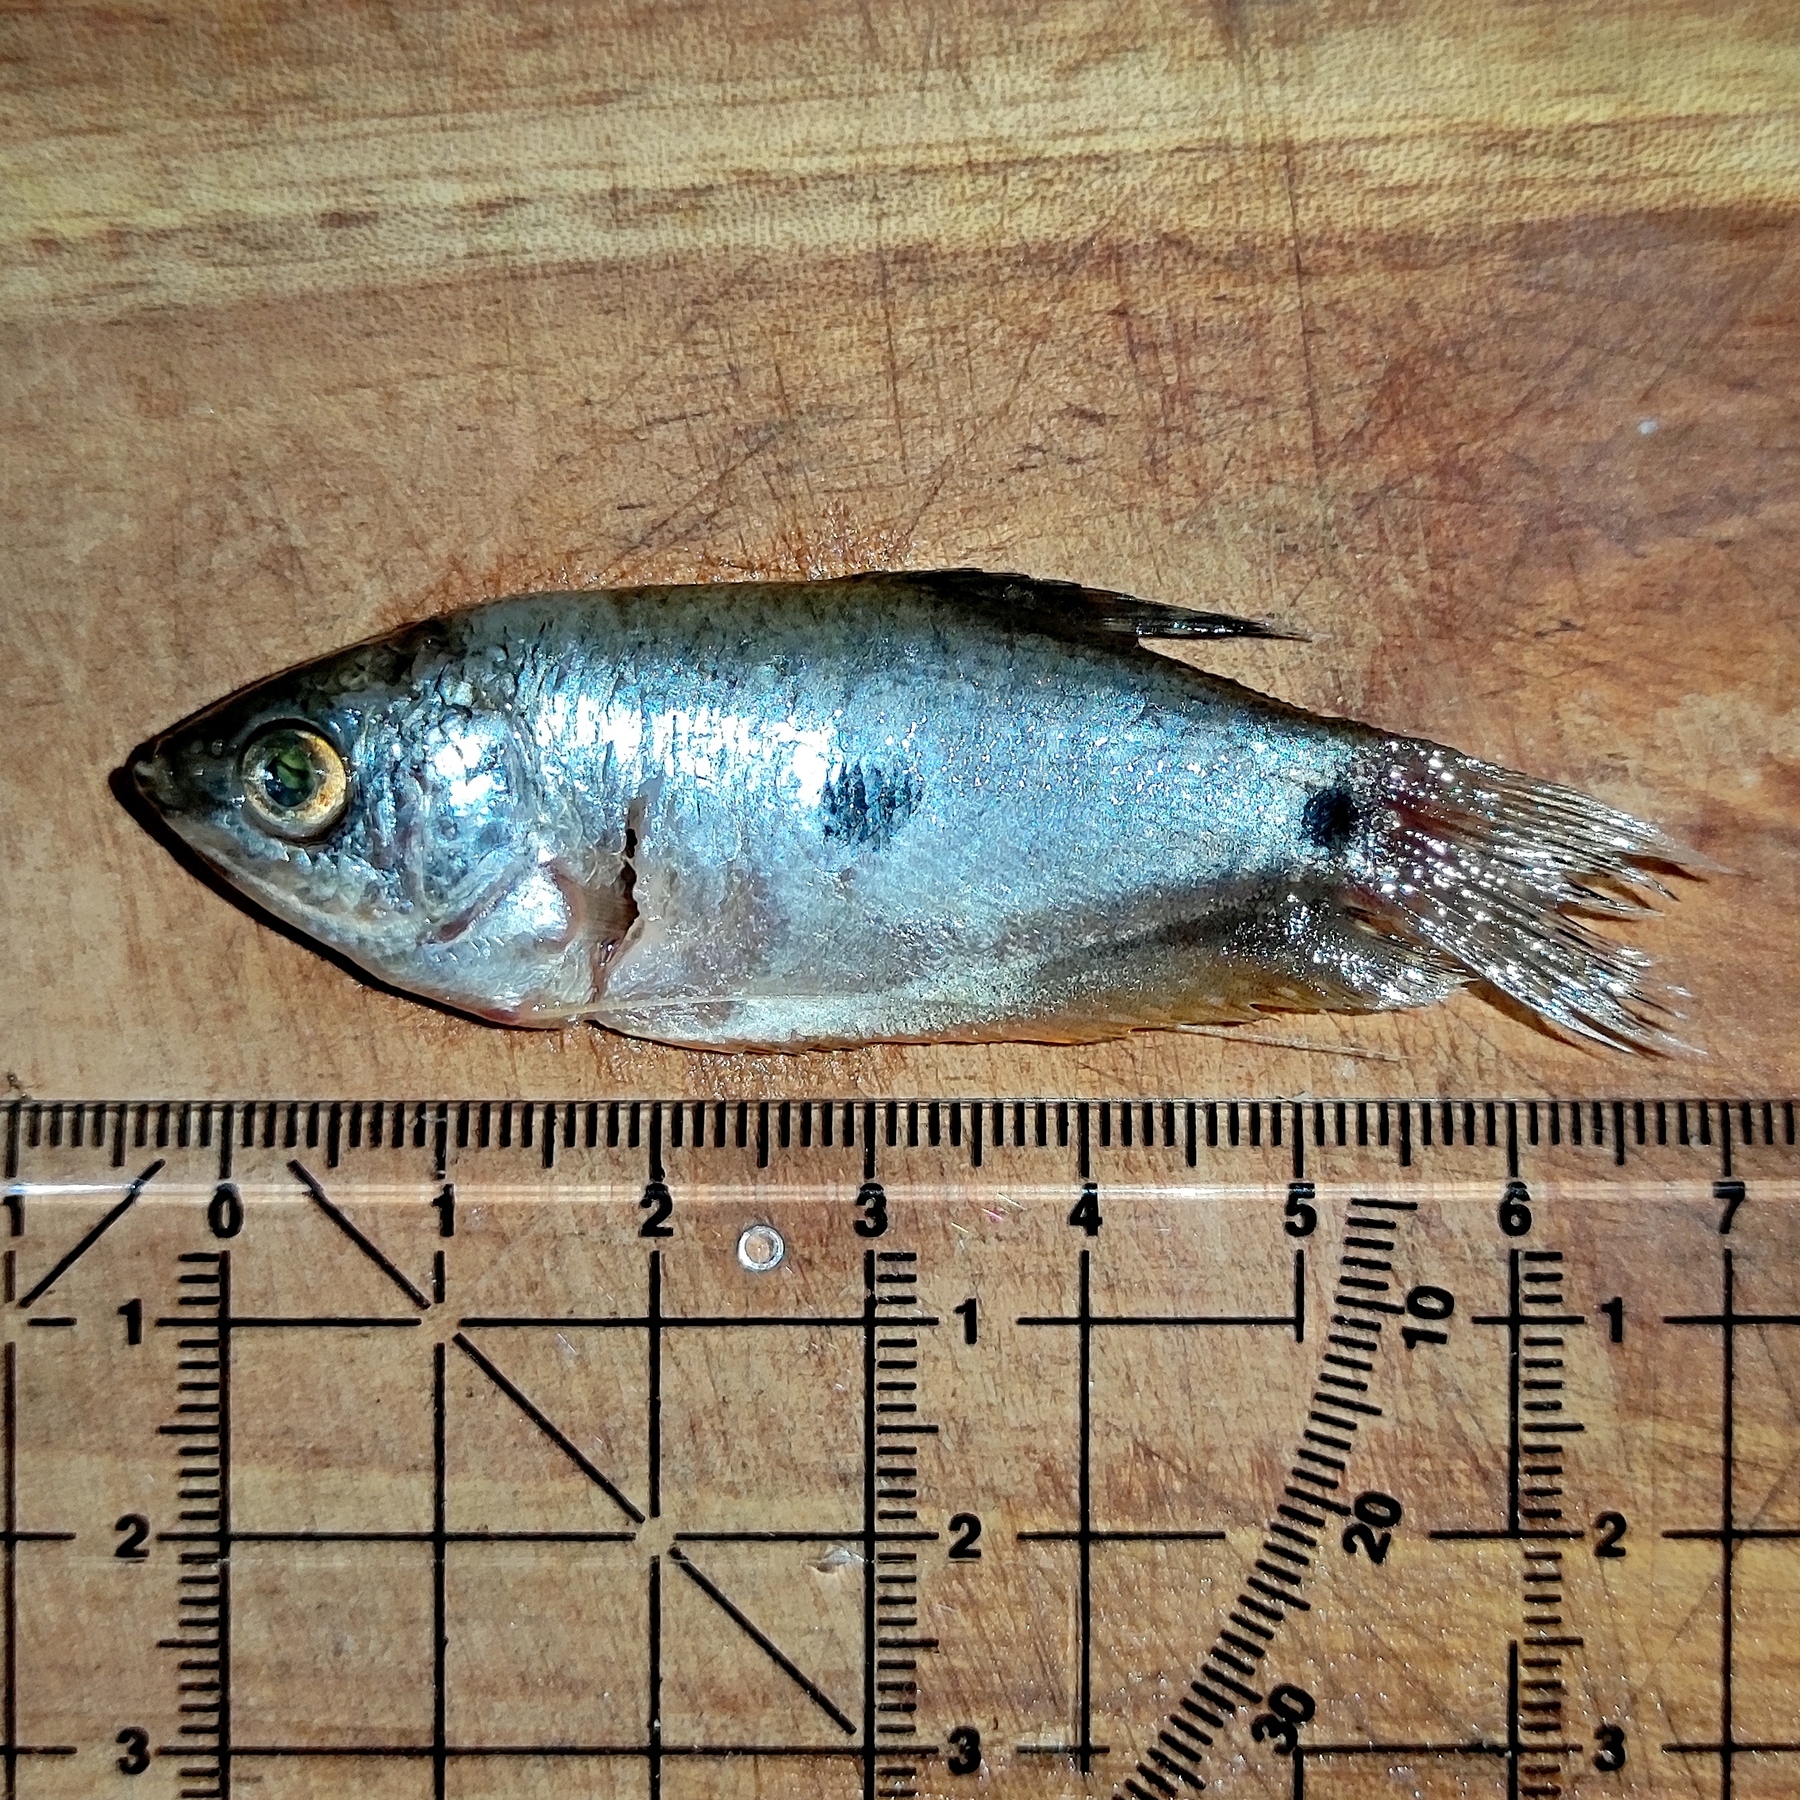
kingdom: Animalia
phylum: Chordata
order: Perciformes
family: Osphronemidae
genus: Trichopodus
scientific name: Trichopodus trichopterus
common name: Blue gourami
